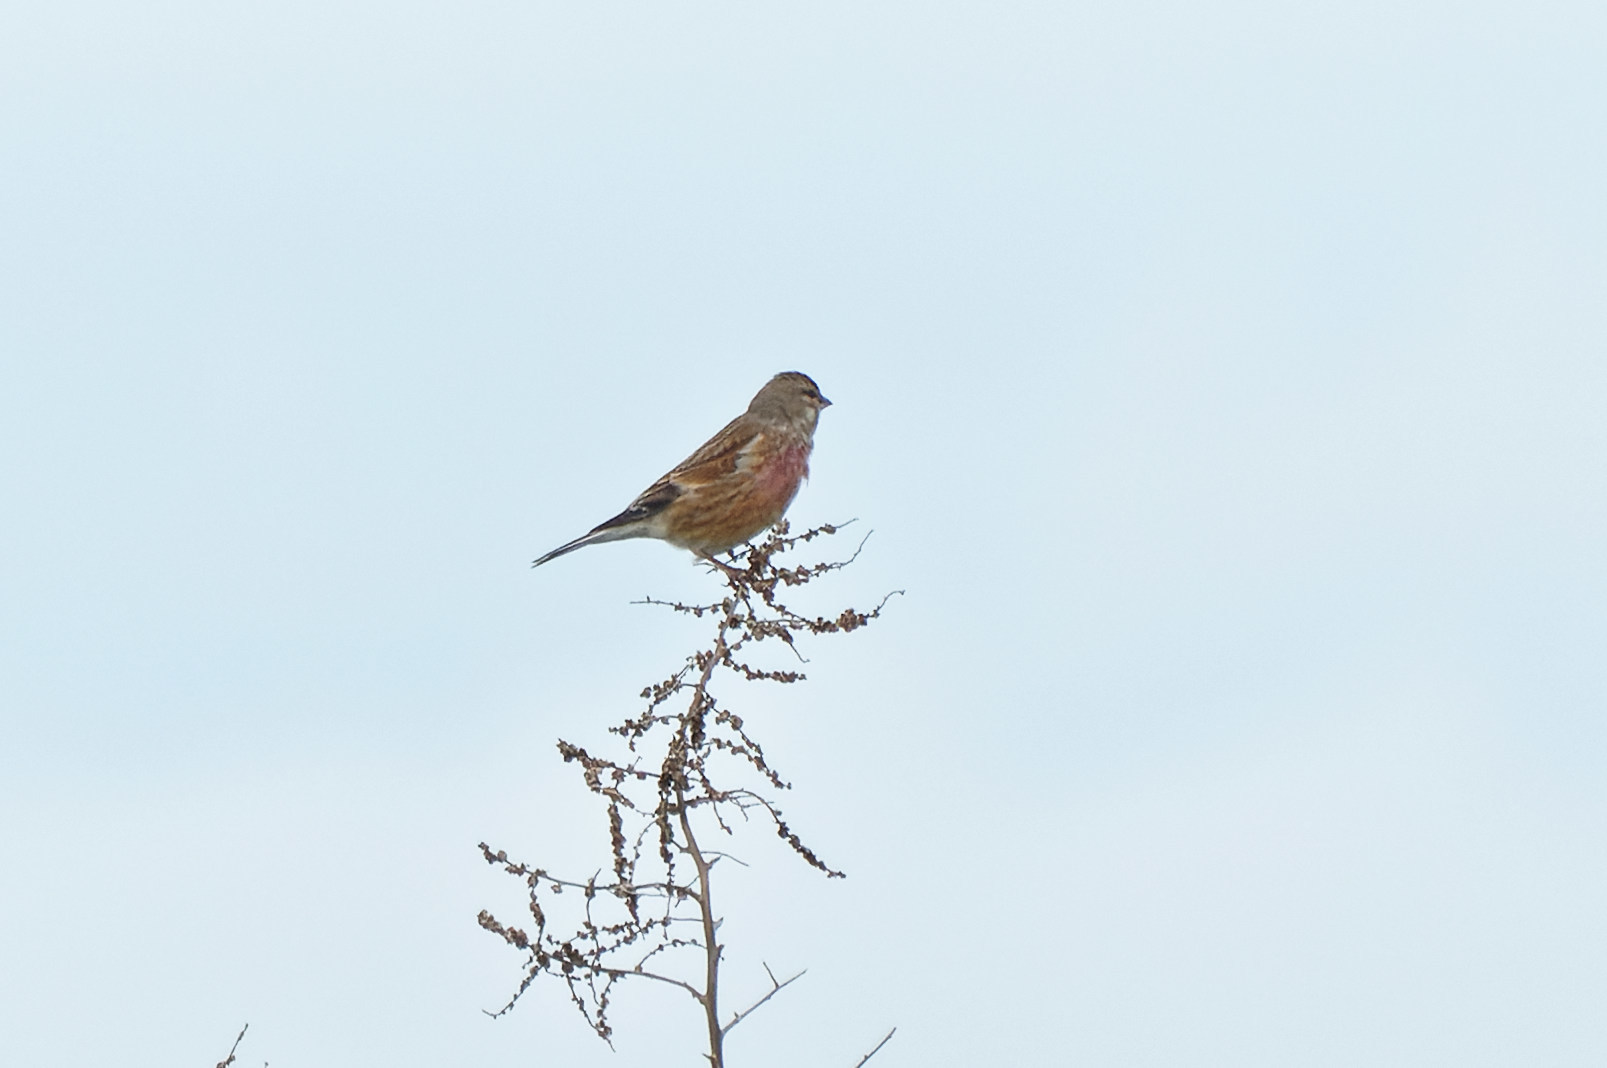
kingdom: Animalia
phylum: Chordata
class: Aves
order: Passeriformes
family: Fringillidae
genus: Linaria
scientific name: Linaria cannabina
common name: Common linnet
